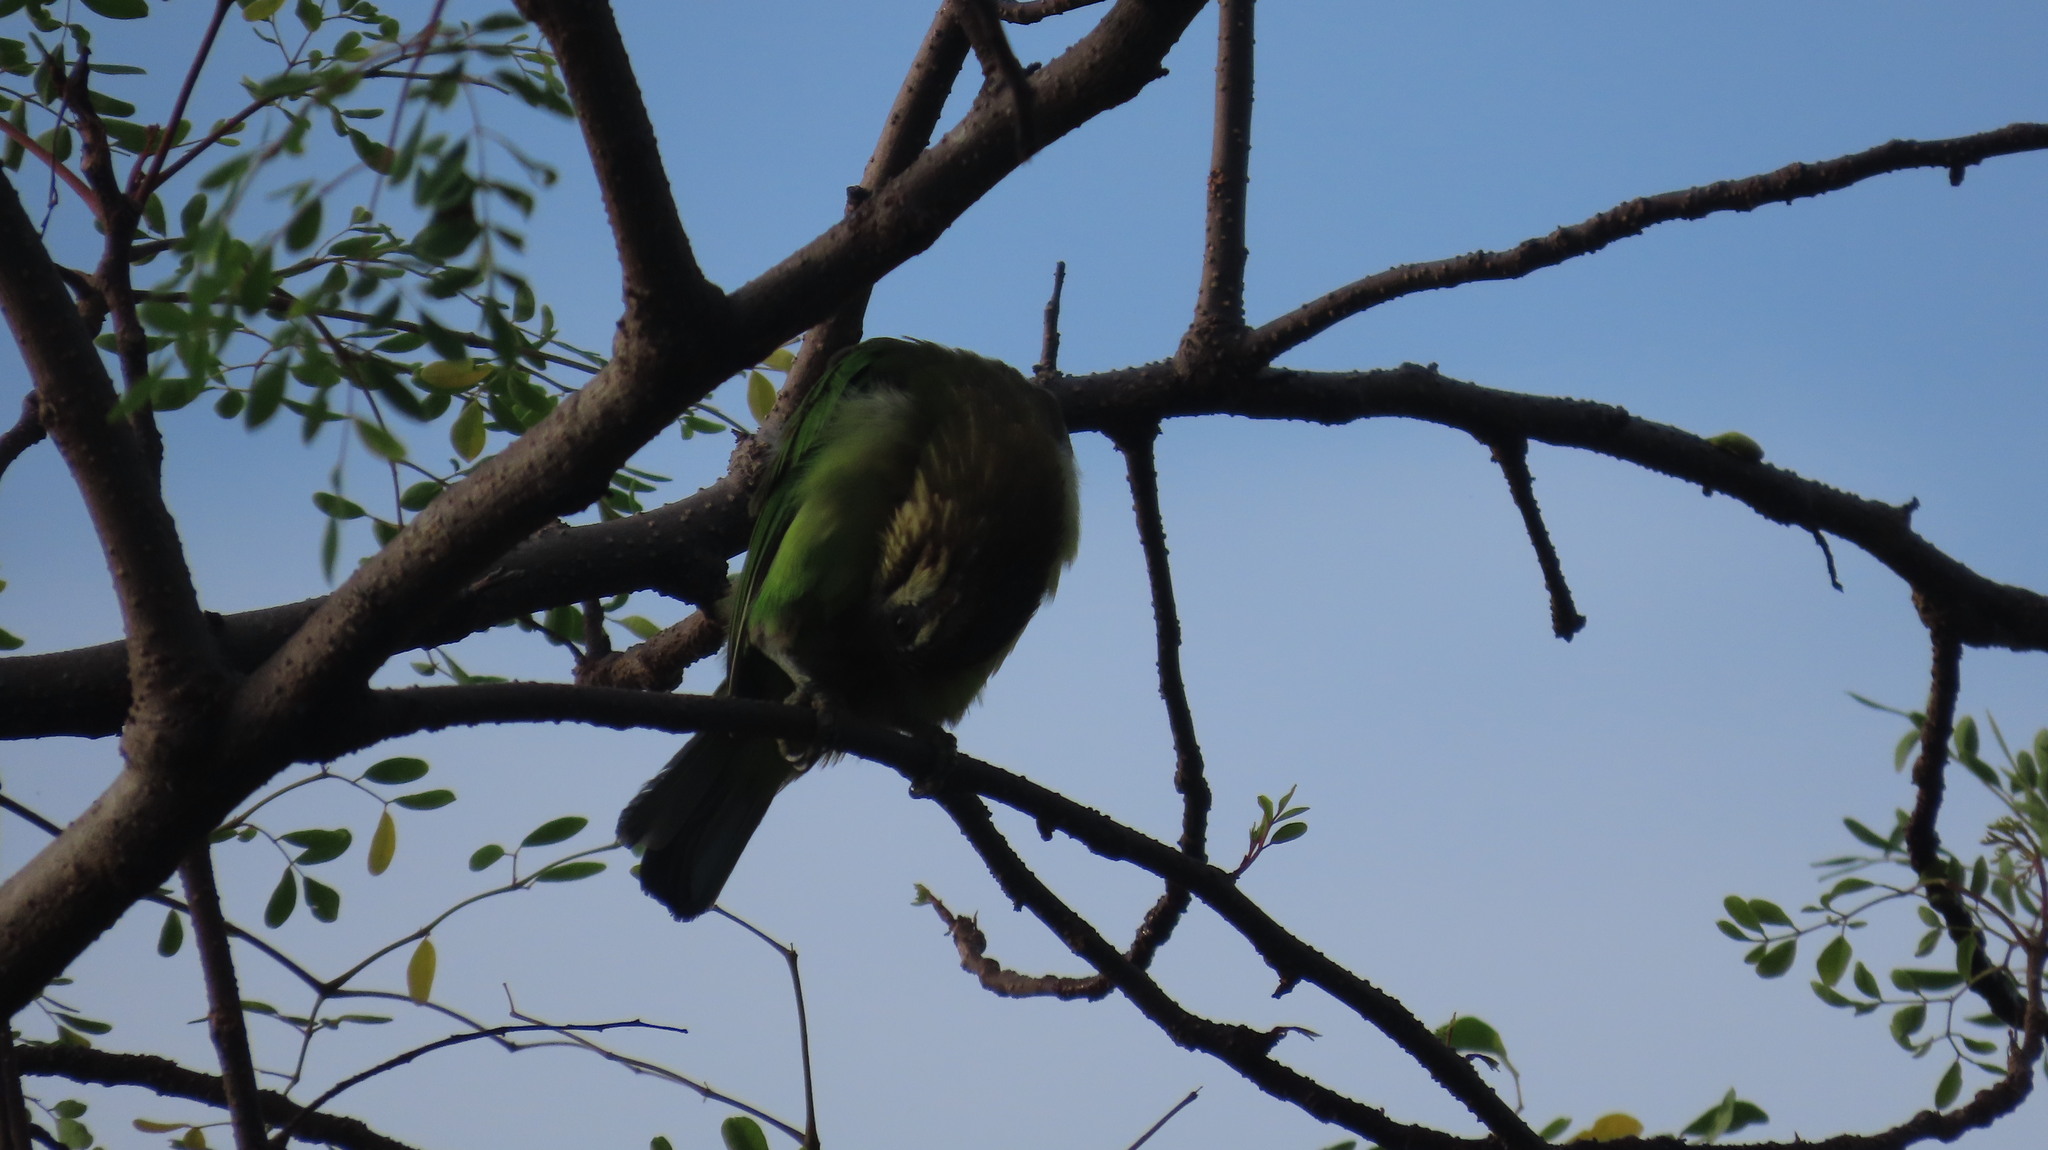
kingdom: Animalia
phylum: Chordata
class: Aves
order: Piciformes
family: Megalaimidae
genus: Psilopogon
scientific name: Psilopogon viridis
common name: White-cheeked barbet
